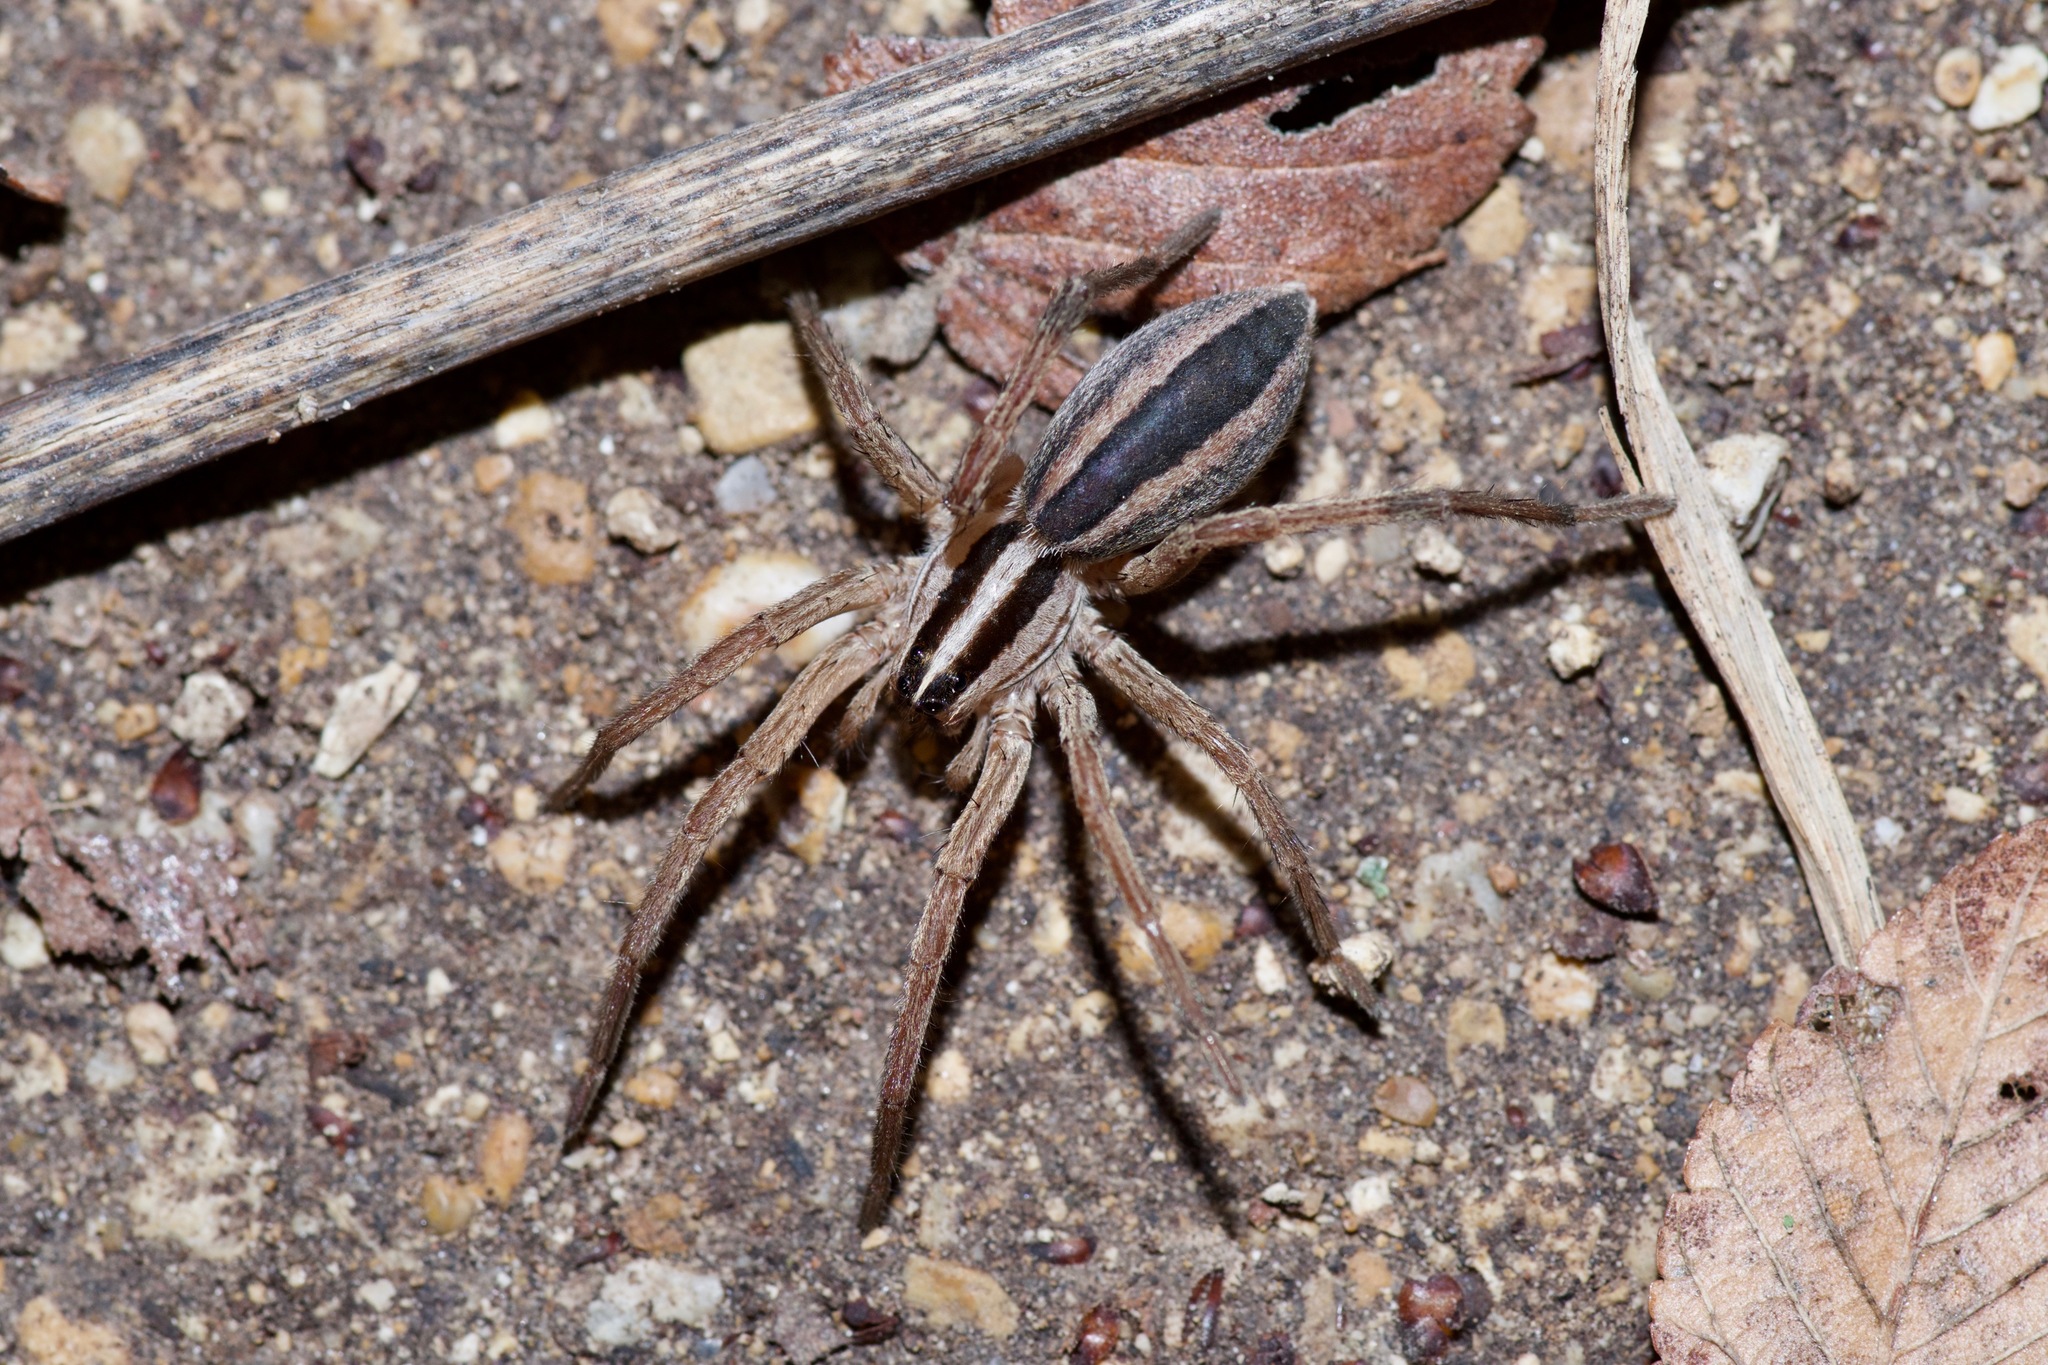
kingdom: Animalia
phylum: Arthropoda
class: Arachnida
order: Araneae
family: Lycosidae
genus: Rabidosa
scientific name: Rabidosa punctulata
